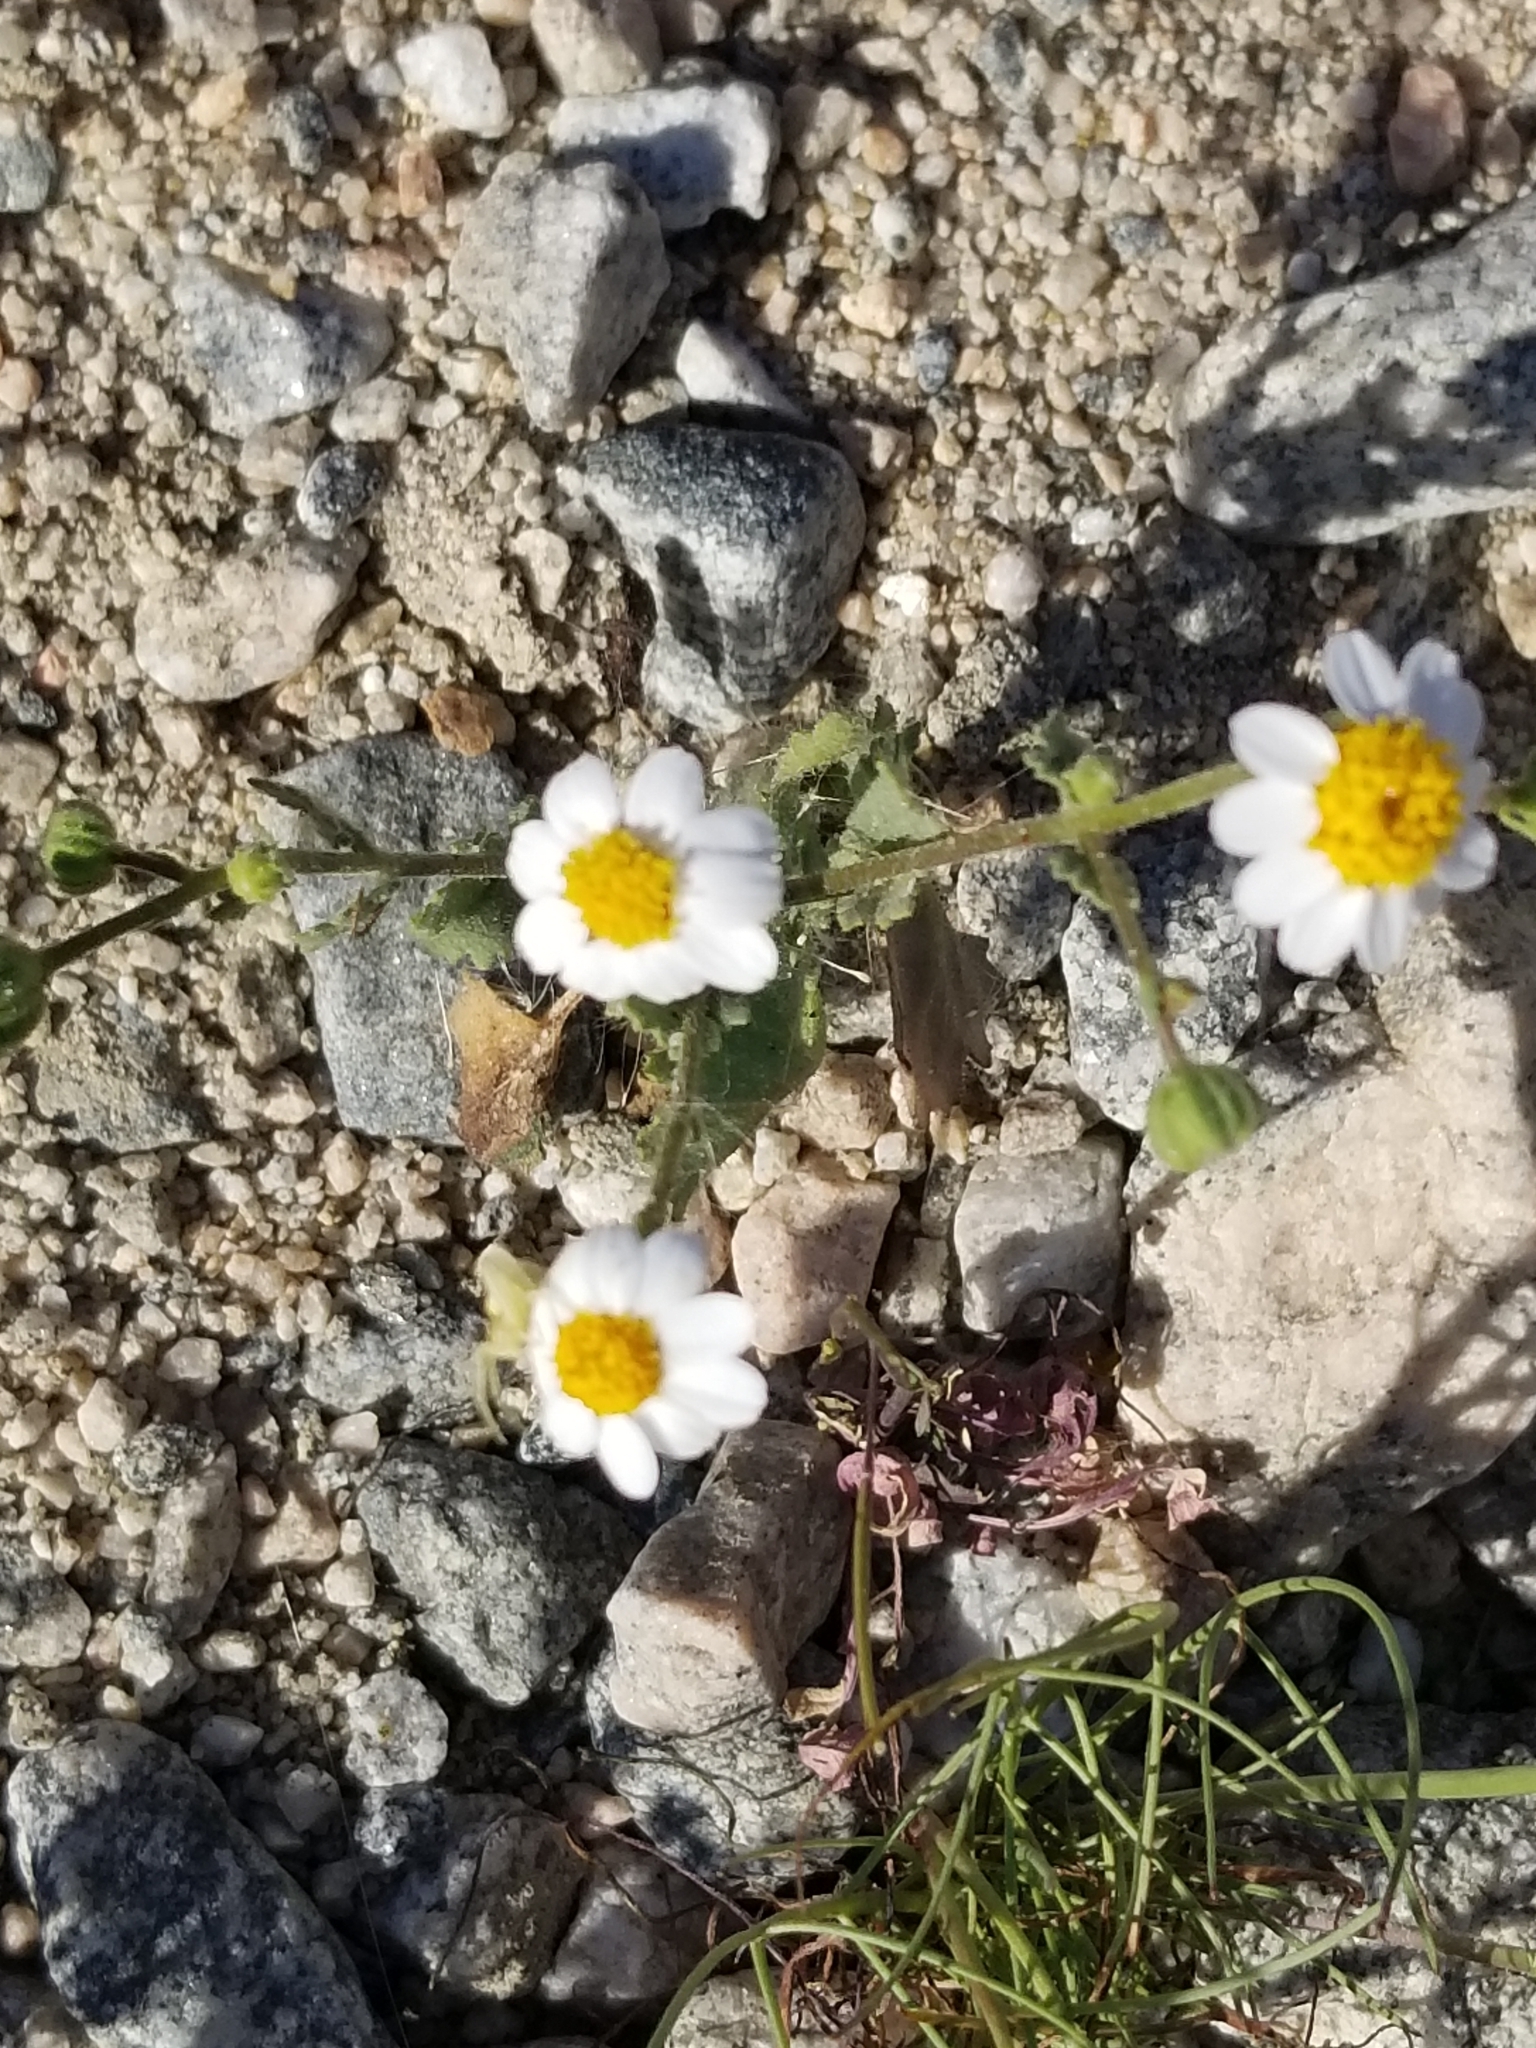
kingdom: Plantae
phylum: Tracheophyta
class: Magnoliopsida
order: Asterales
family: Asteraceae
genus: Laphamia
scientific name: Laphamia emoryi
